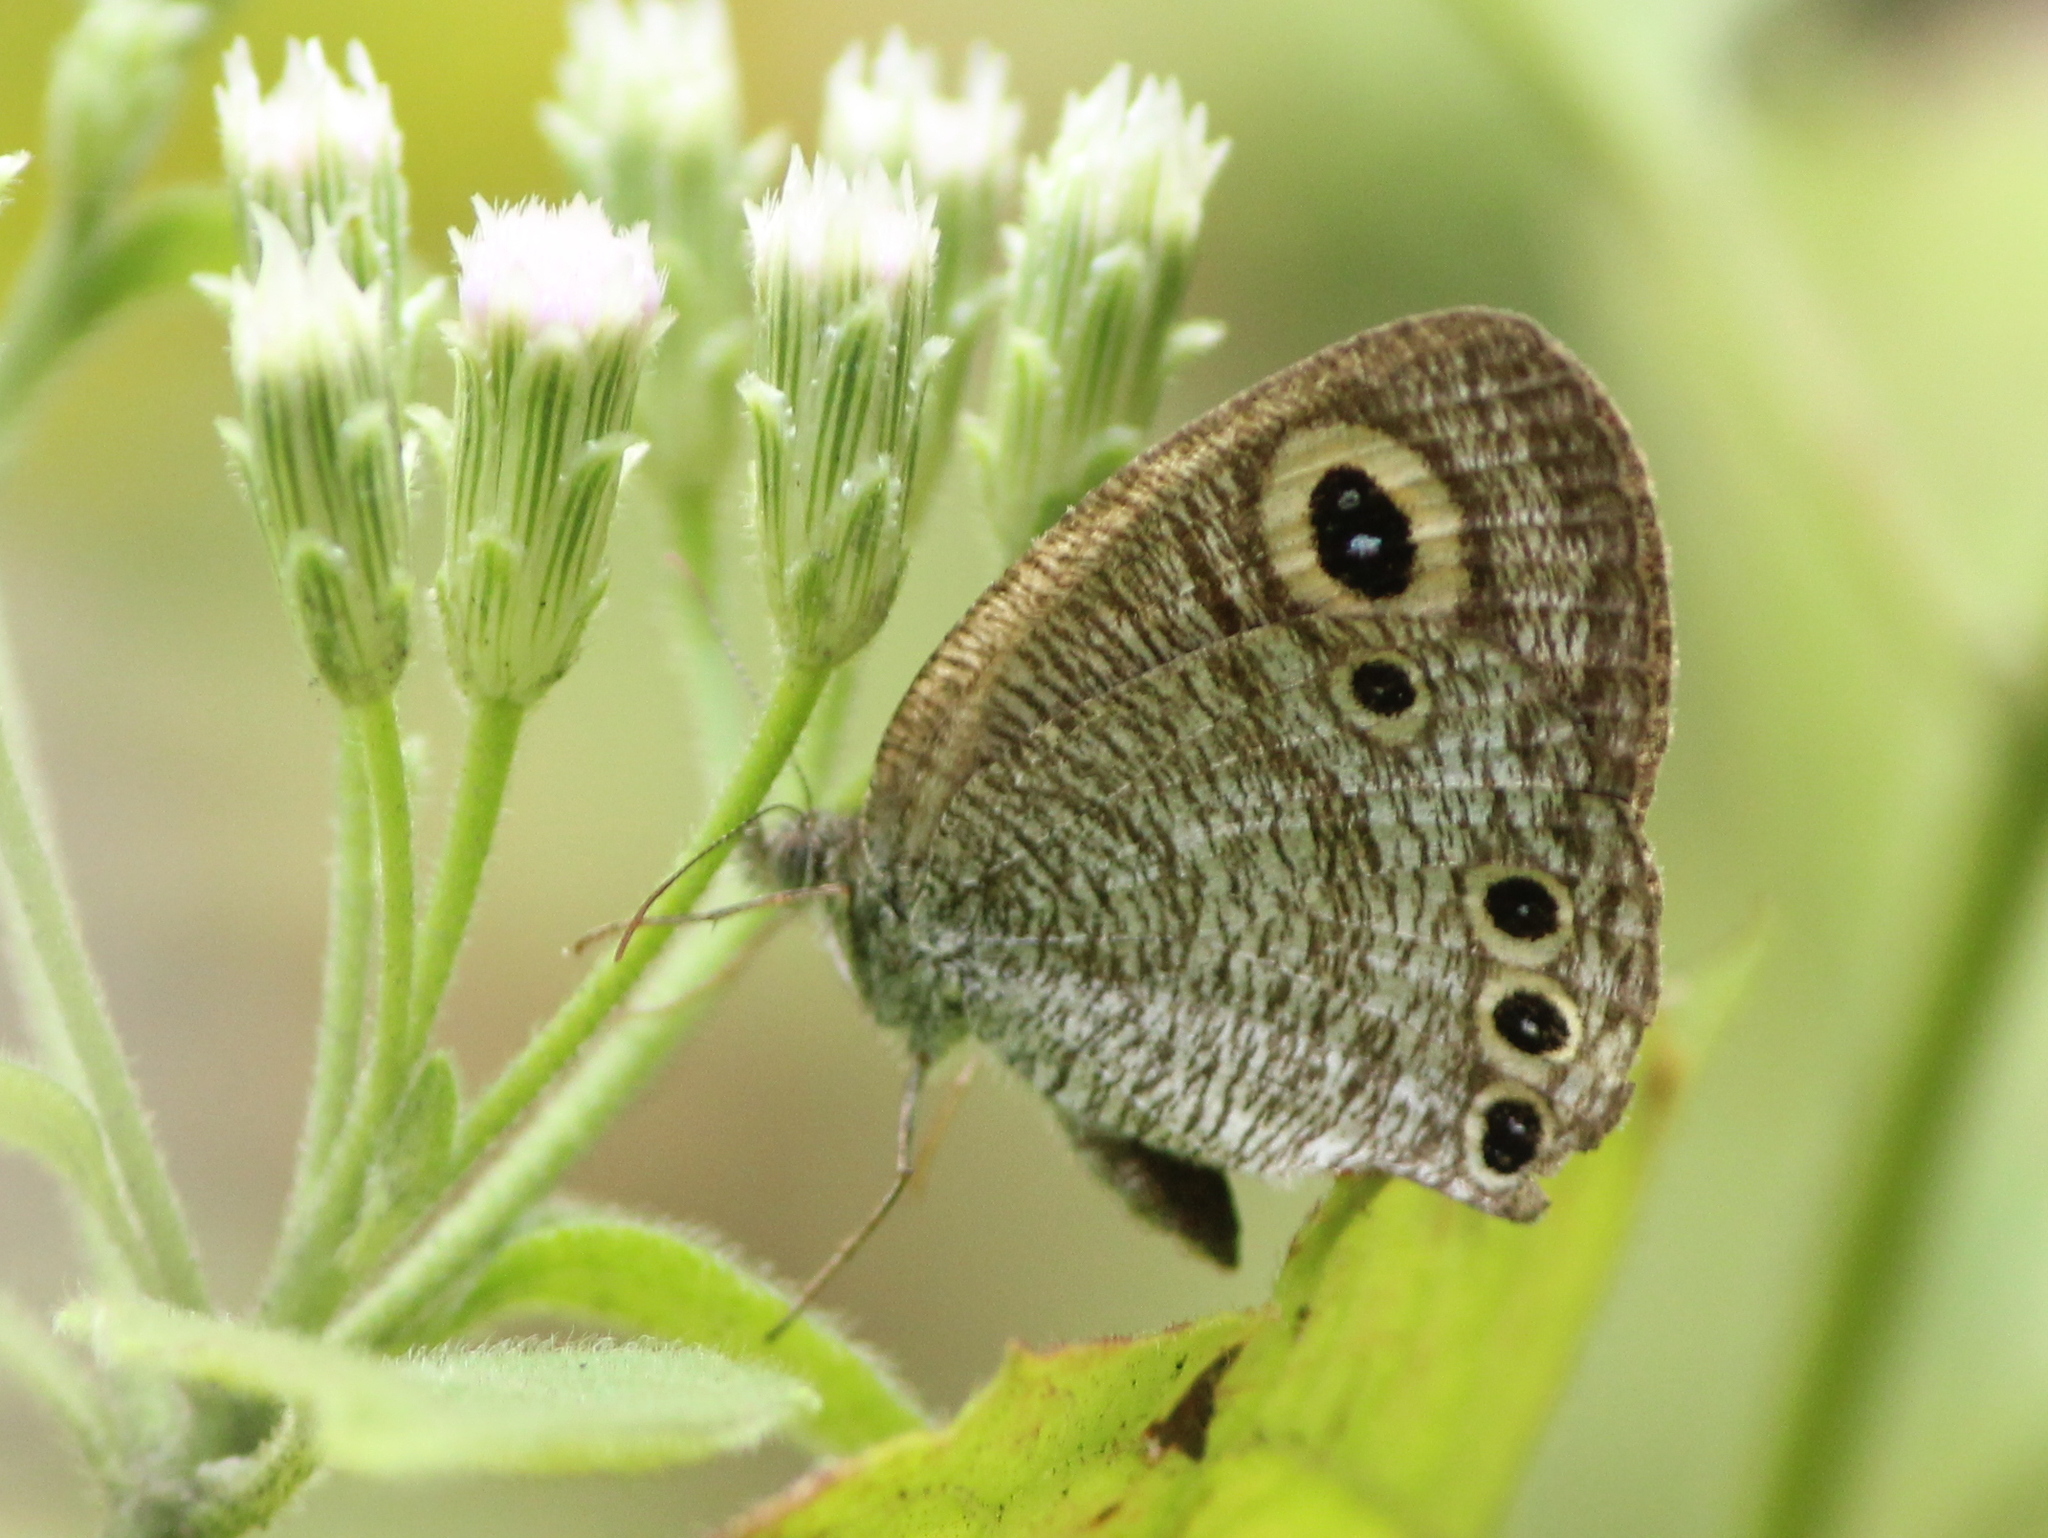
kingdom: Animalia
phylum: Arthropoda
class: Insecta
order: Lepidoptera
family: Nymphalidae
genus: Ypthima
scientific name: Ypthima huebneri
